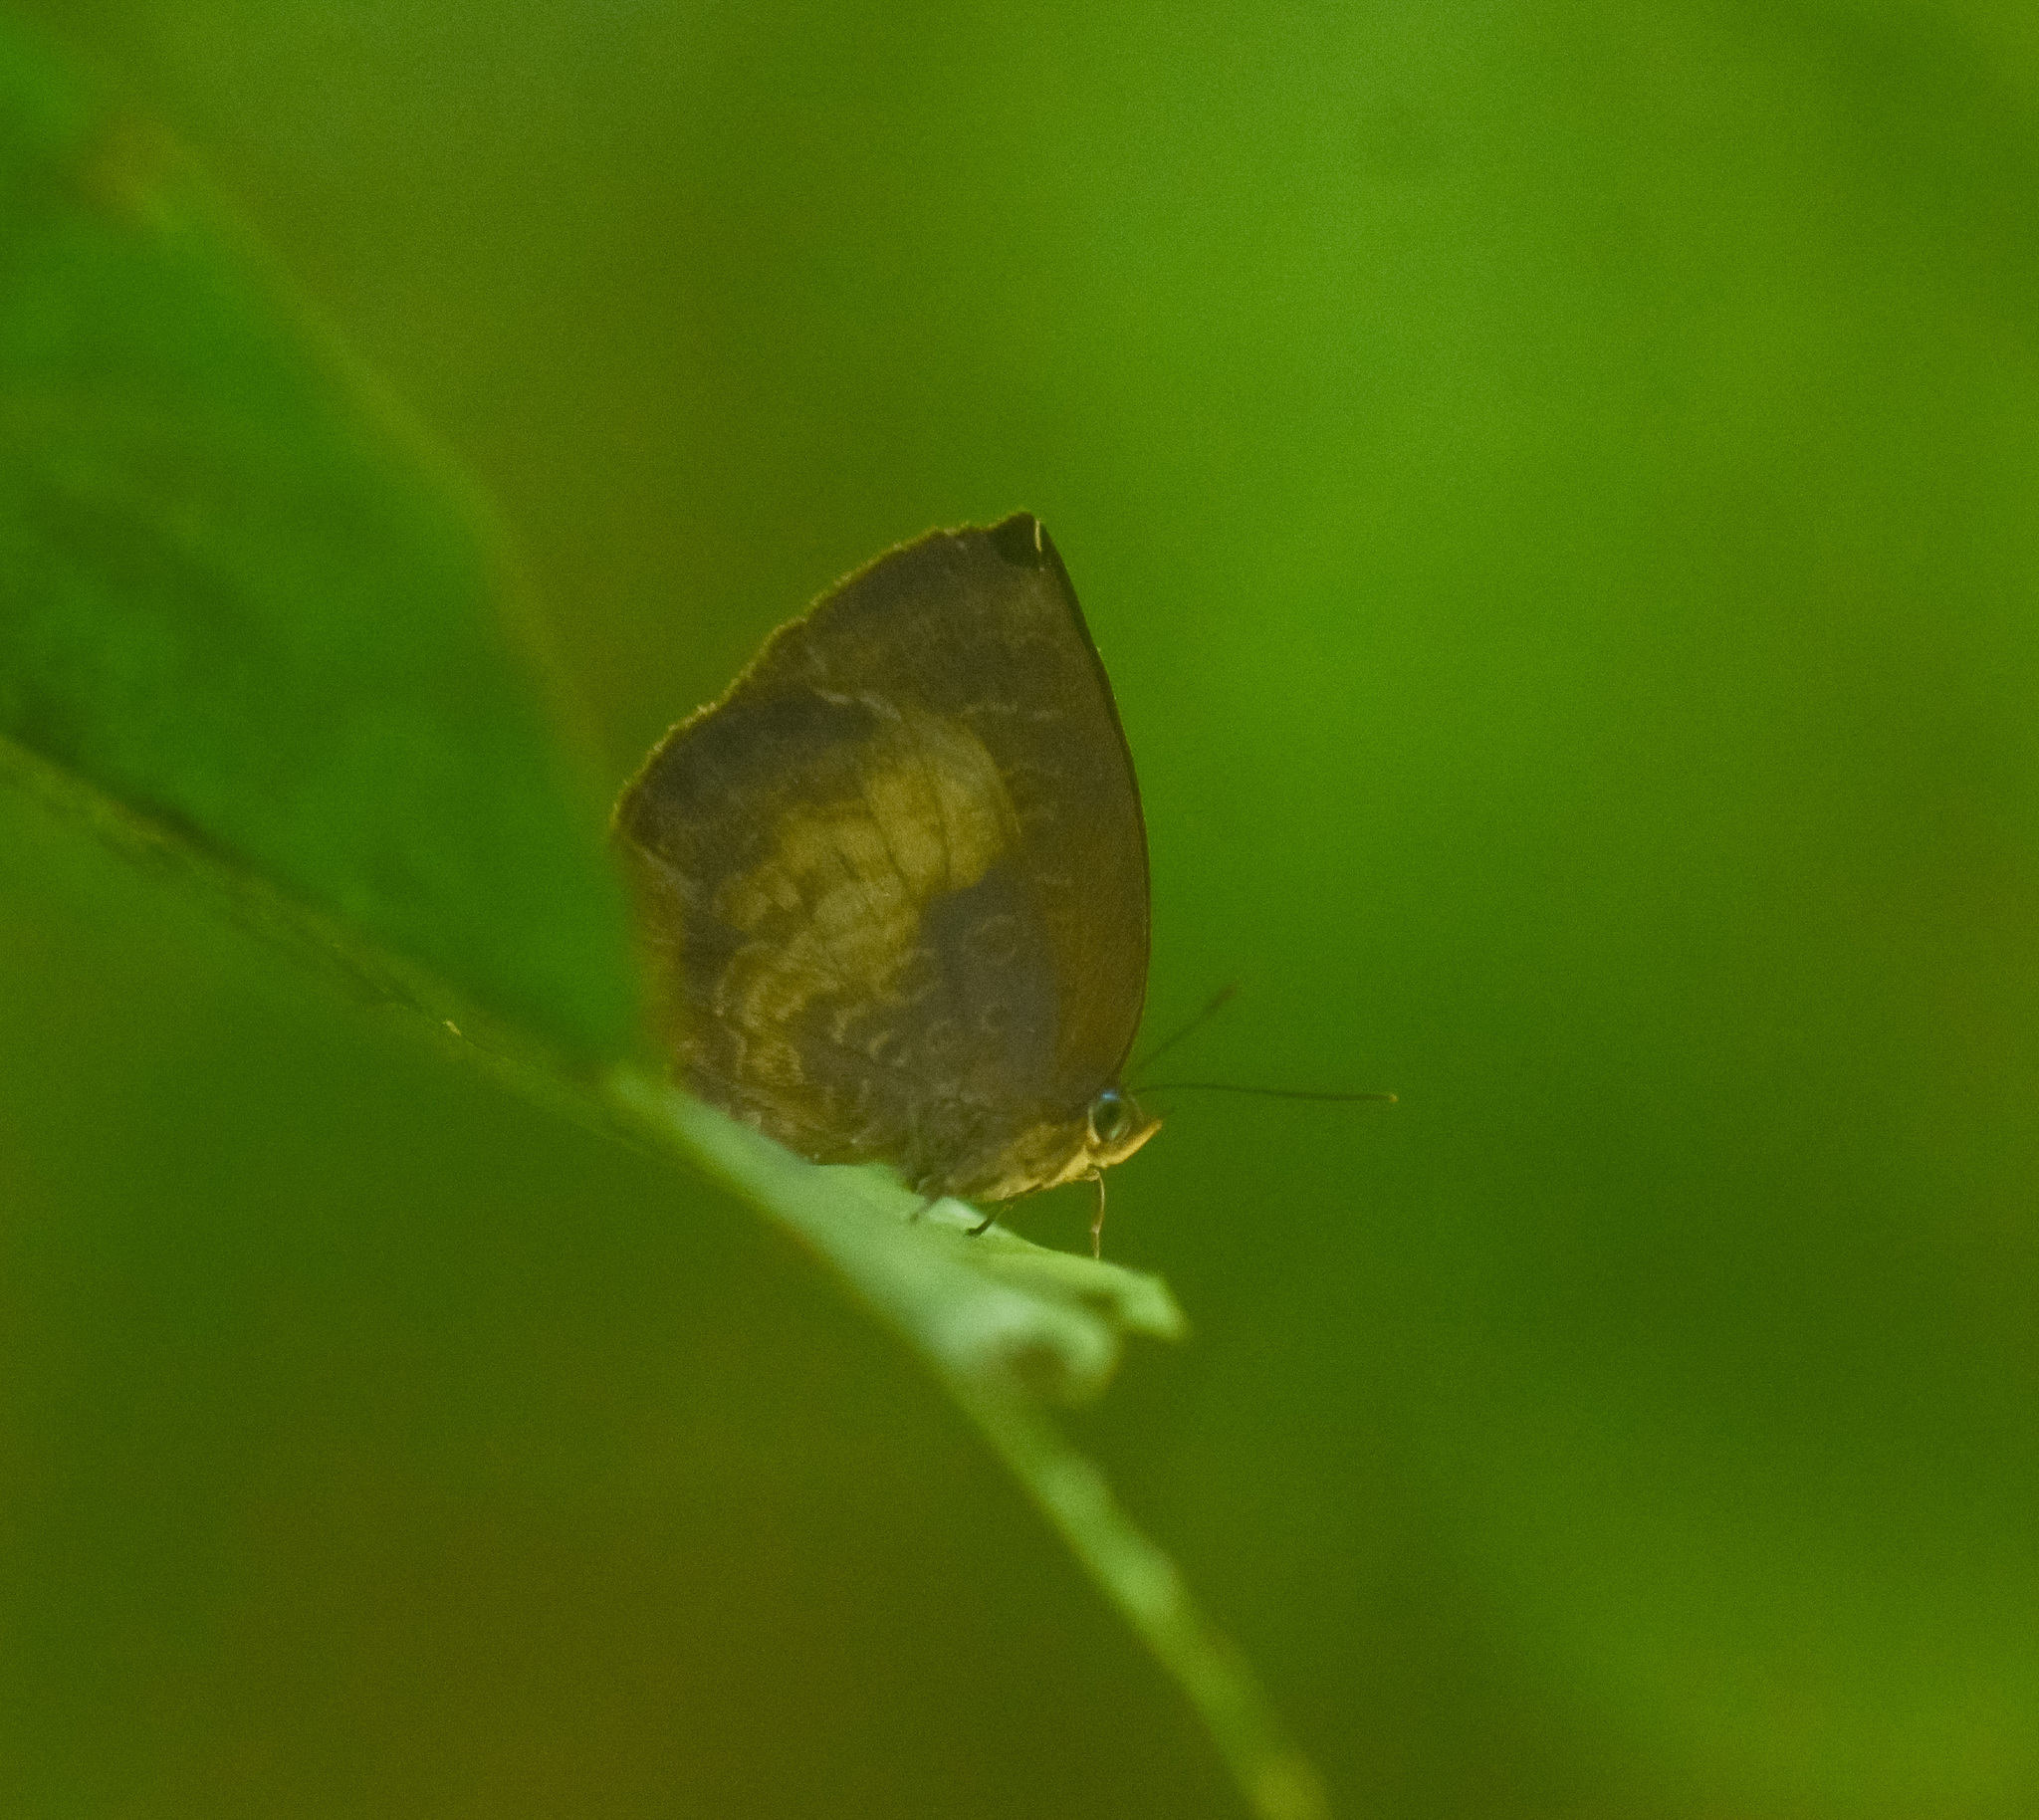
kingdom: Animalia
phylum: Arthropoda
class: Insecta
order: Lepidoptera
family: Lycaenidae
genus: Arhopala
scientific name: Arhopala perimuta
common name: Yellowdisc oakblue
